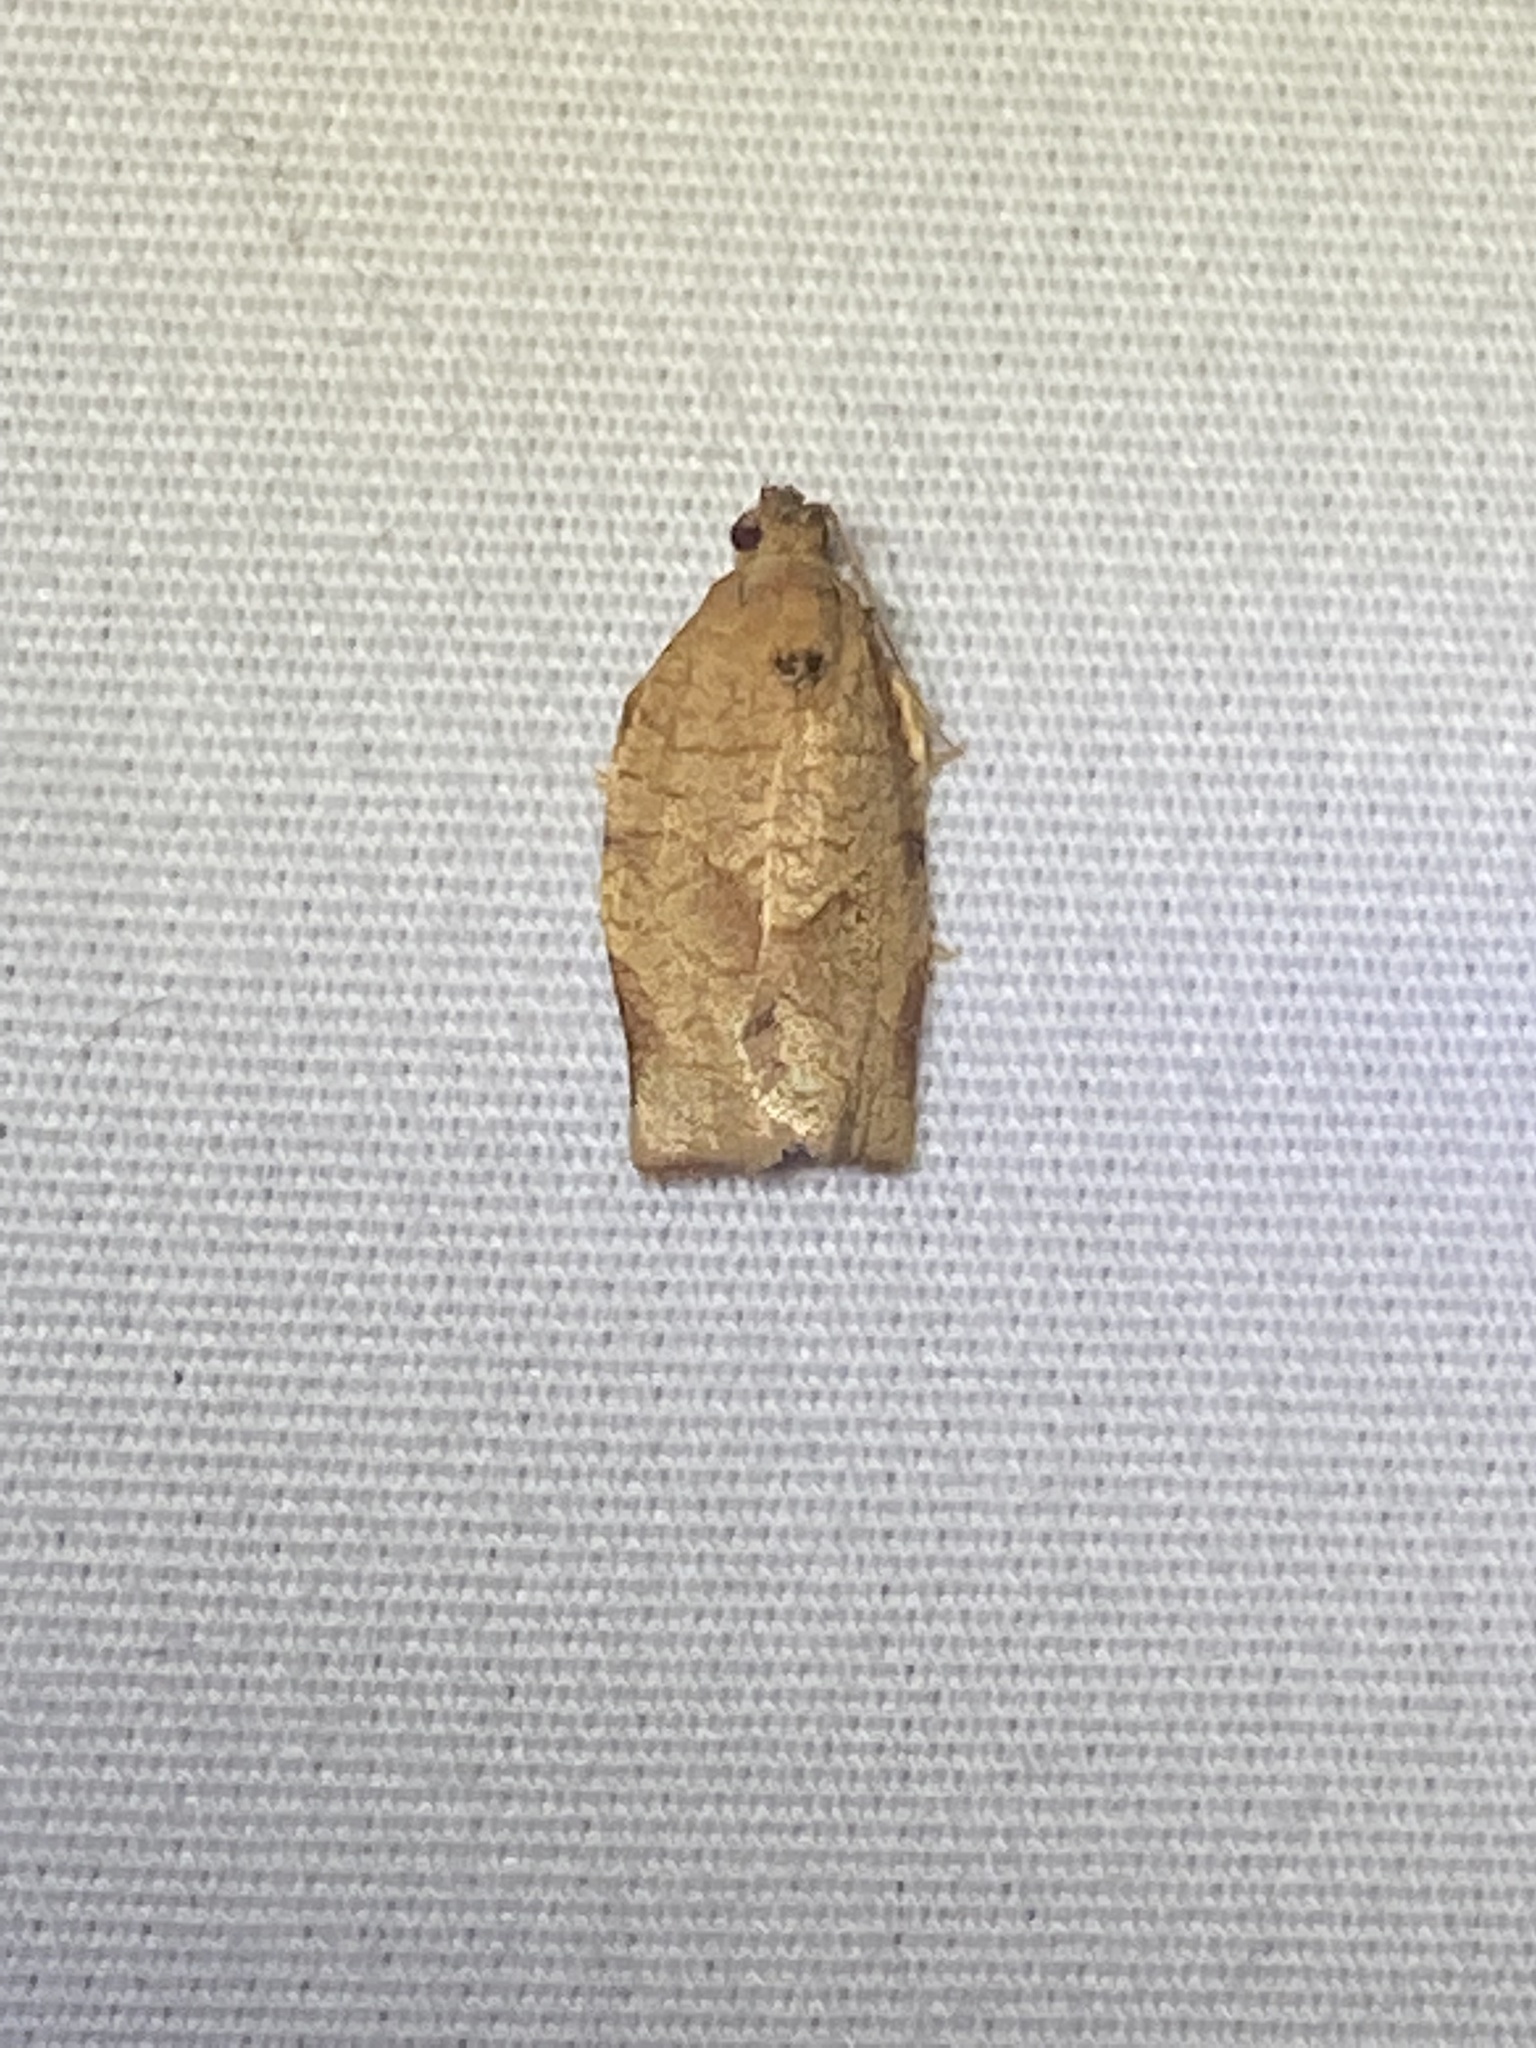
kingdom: Animalia
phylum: Arthropoda
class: Insecta
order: Lepidoptera
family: Tortricidae
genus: Choristoneura
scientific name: Choristoneura rosaceana
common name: Oblique-banded leafroller moth
